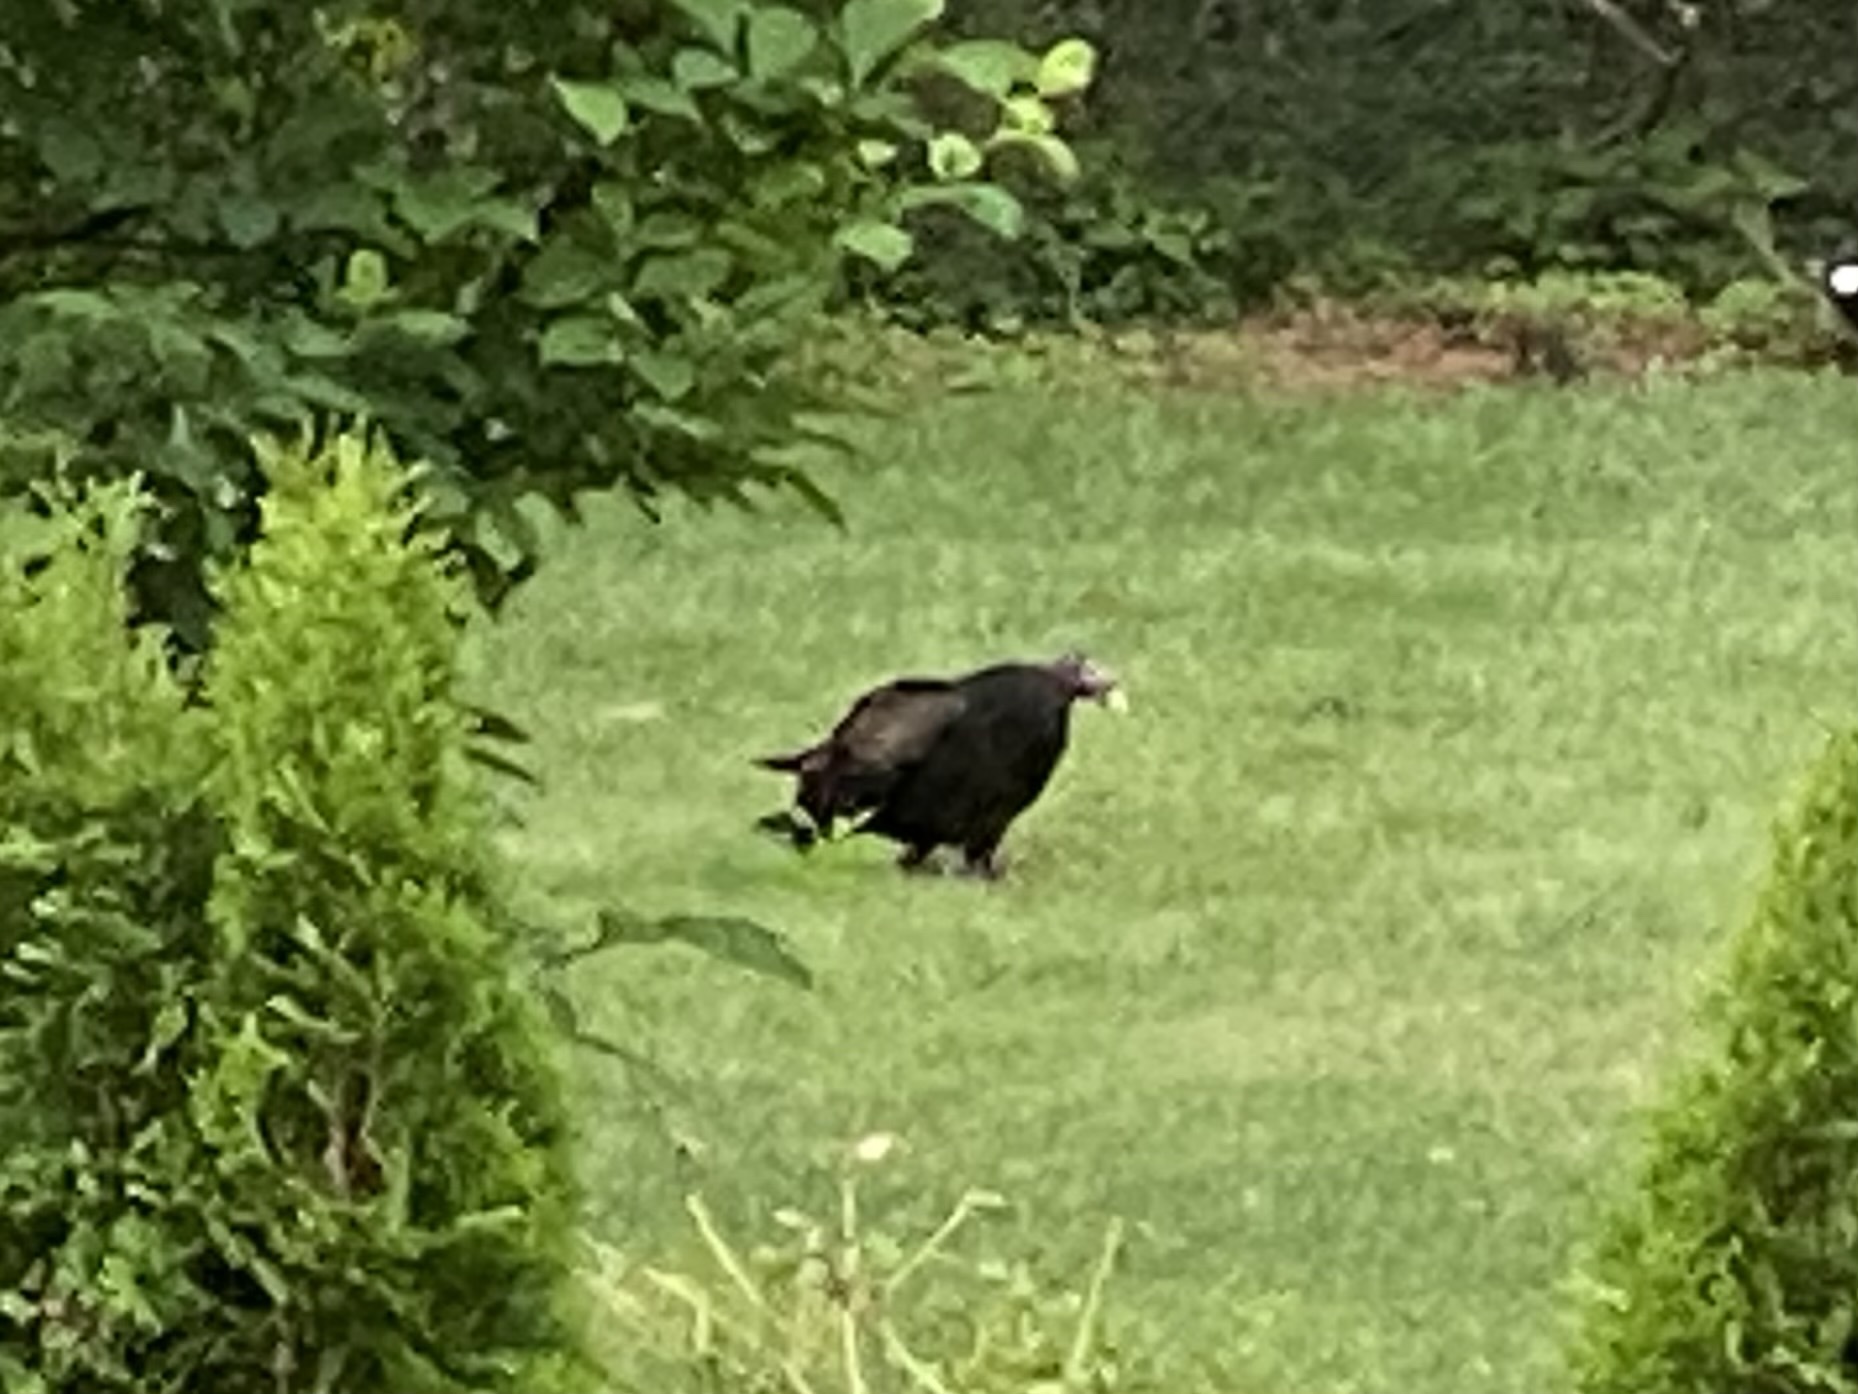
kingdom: Animalia
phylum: Chordata
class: Aves
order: Accipitriformes
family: Cathartidae
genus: Cathartes
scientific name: Cathartes aura
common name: Turkey vulture
